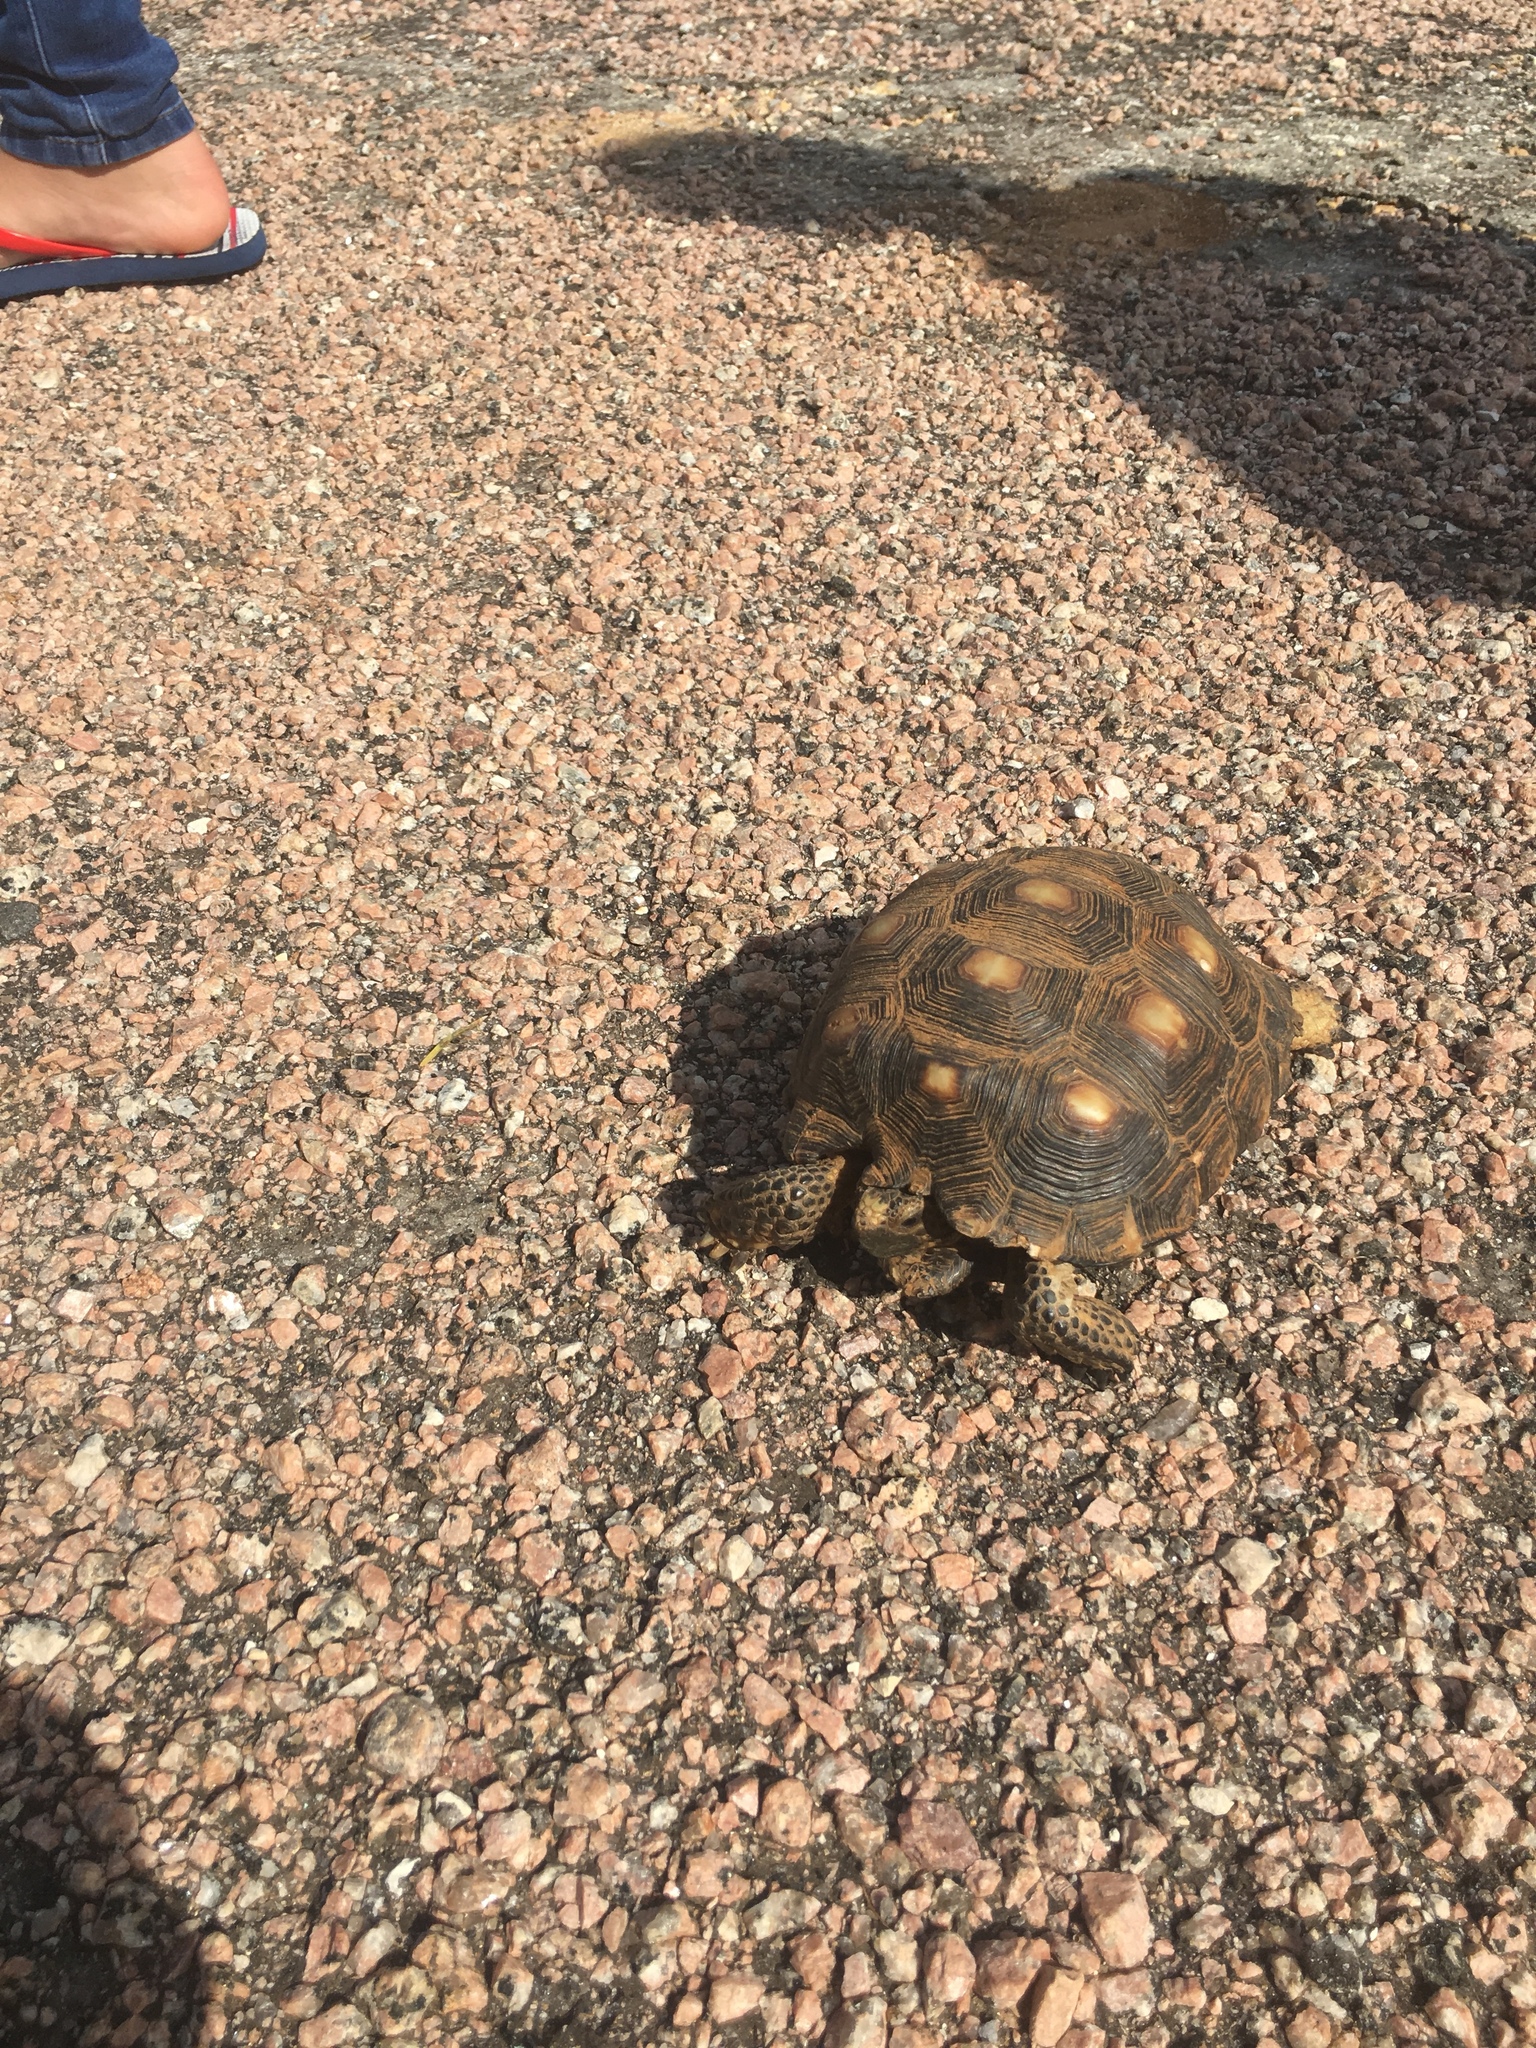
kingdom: Animalia
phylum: Chordata
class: Testudines
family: Testudinidae
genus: Gopherus
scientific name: Gopherus berlandieri
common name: Texas (gopher )tortoise
